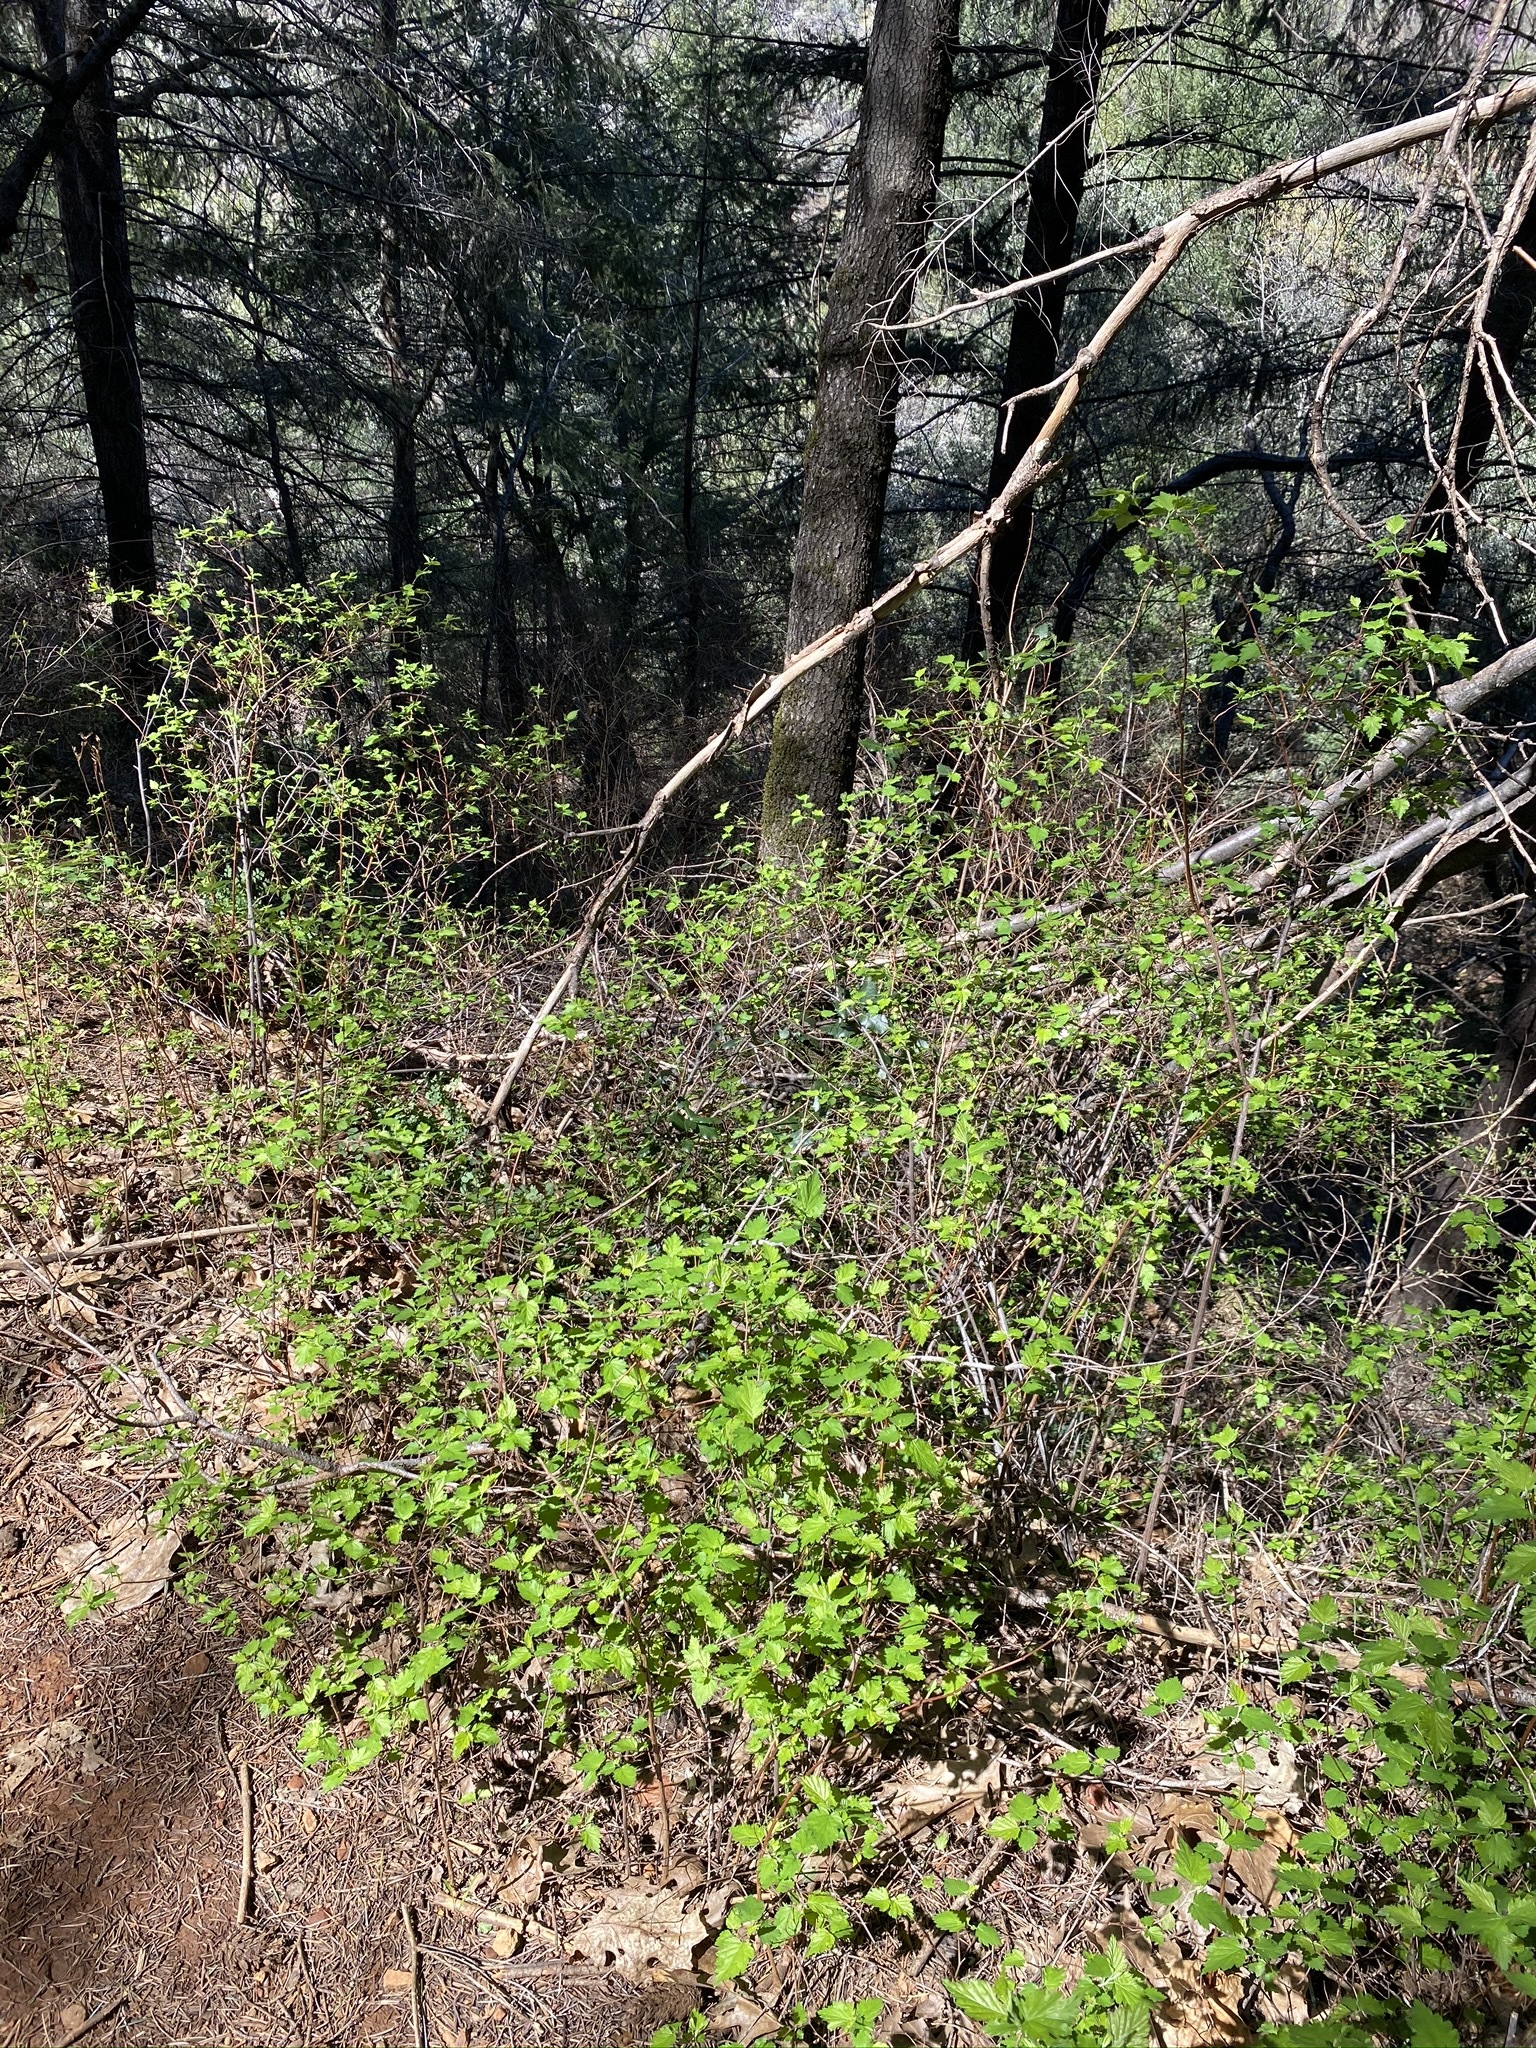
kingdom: Plantae
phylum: Tracheophyta
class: Magnoliopsida
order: Rosales
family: Rosaceae
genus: Neviusia
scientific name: Neviusia cliftonii
